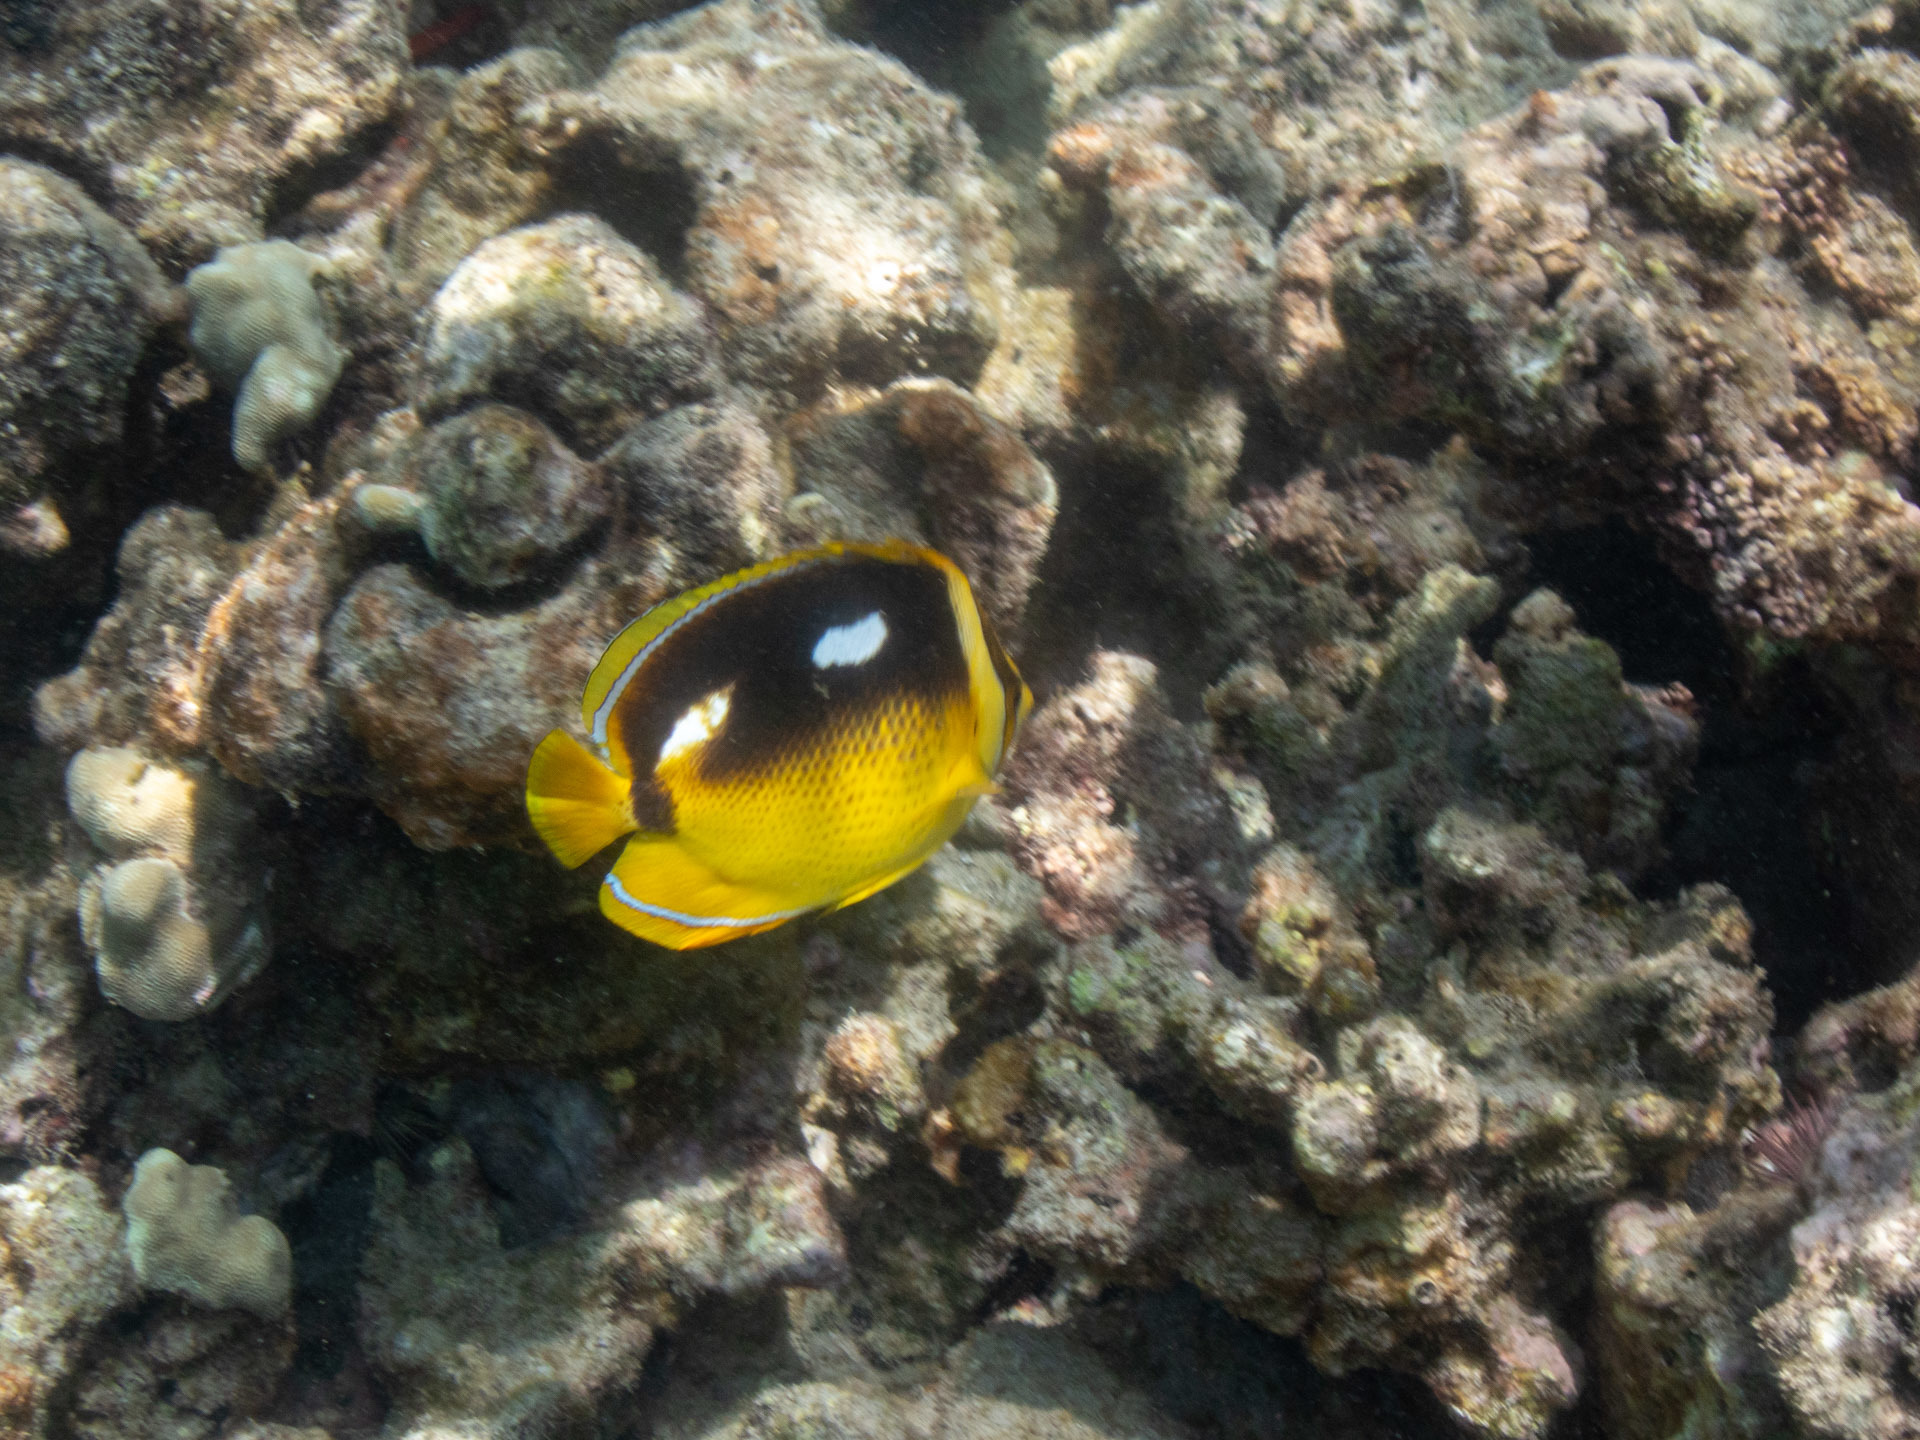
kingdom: Animalia
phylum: Chordata
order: Perciformes
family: Chaetodontidae
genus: Chaetodon
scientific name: Chaetodon quadrimaculatus
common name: Fourspot butterflyfish
